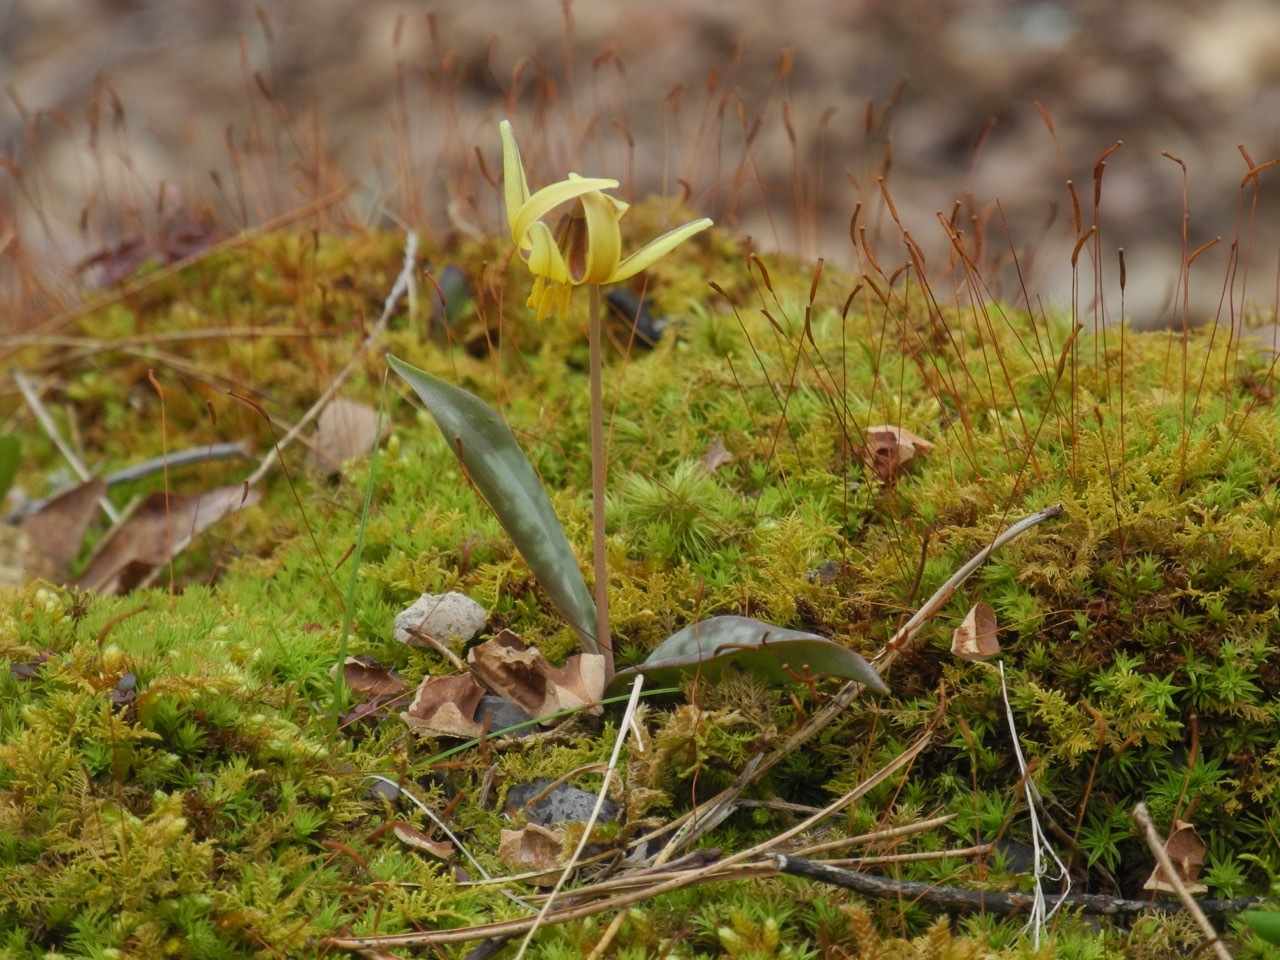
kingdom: Plantae
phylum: Tracheophyta
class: Liliopsida
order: Liliales
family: Liliaceae
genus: Erythronium
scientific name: Erythronium americanum
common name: Yellow adder's-tongue
